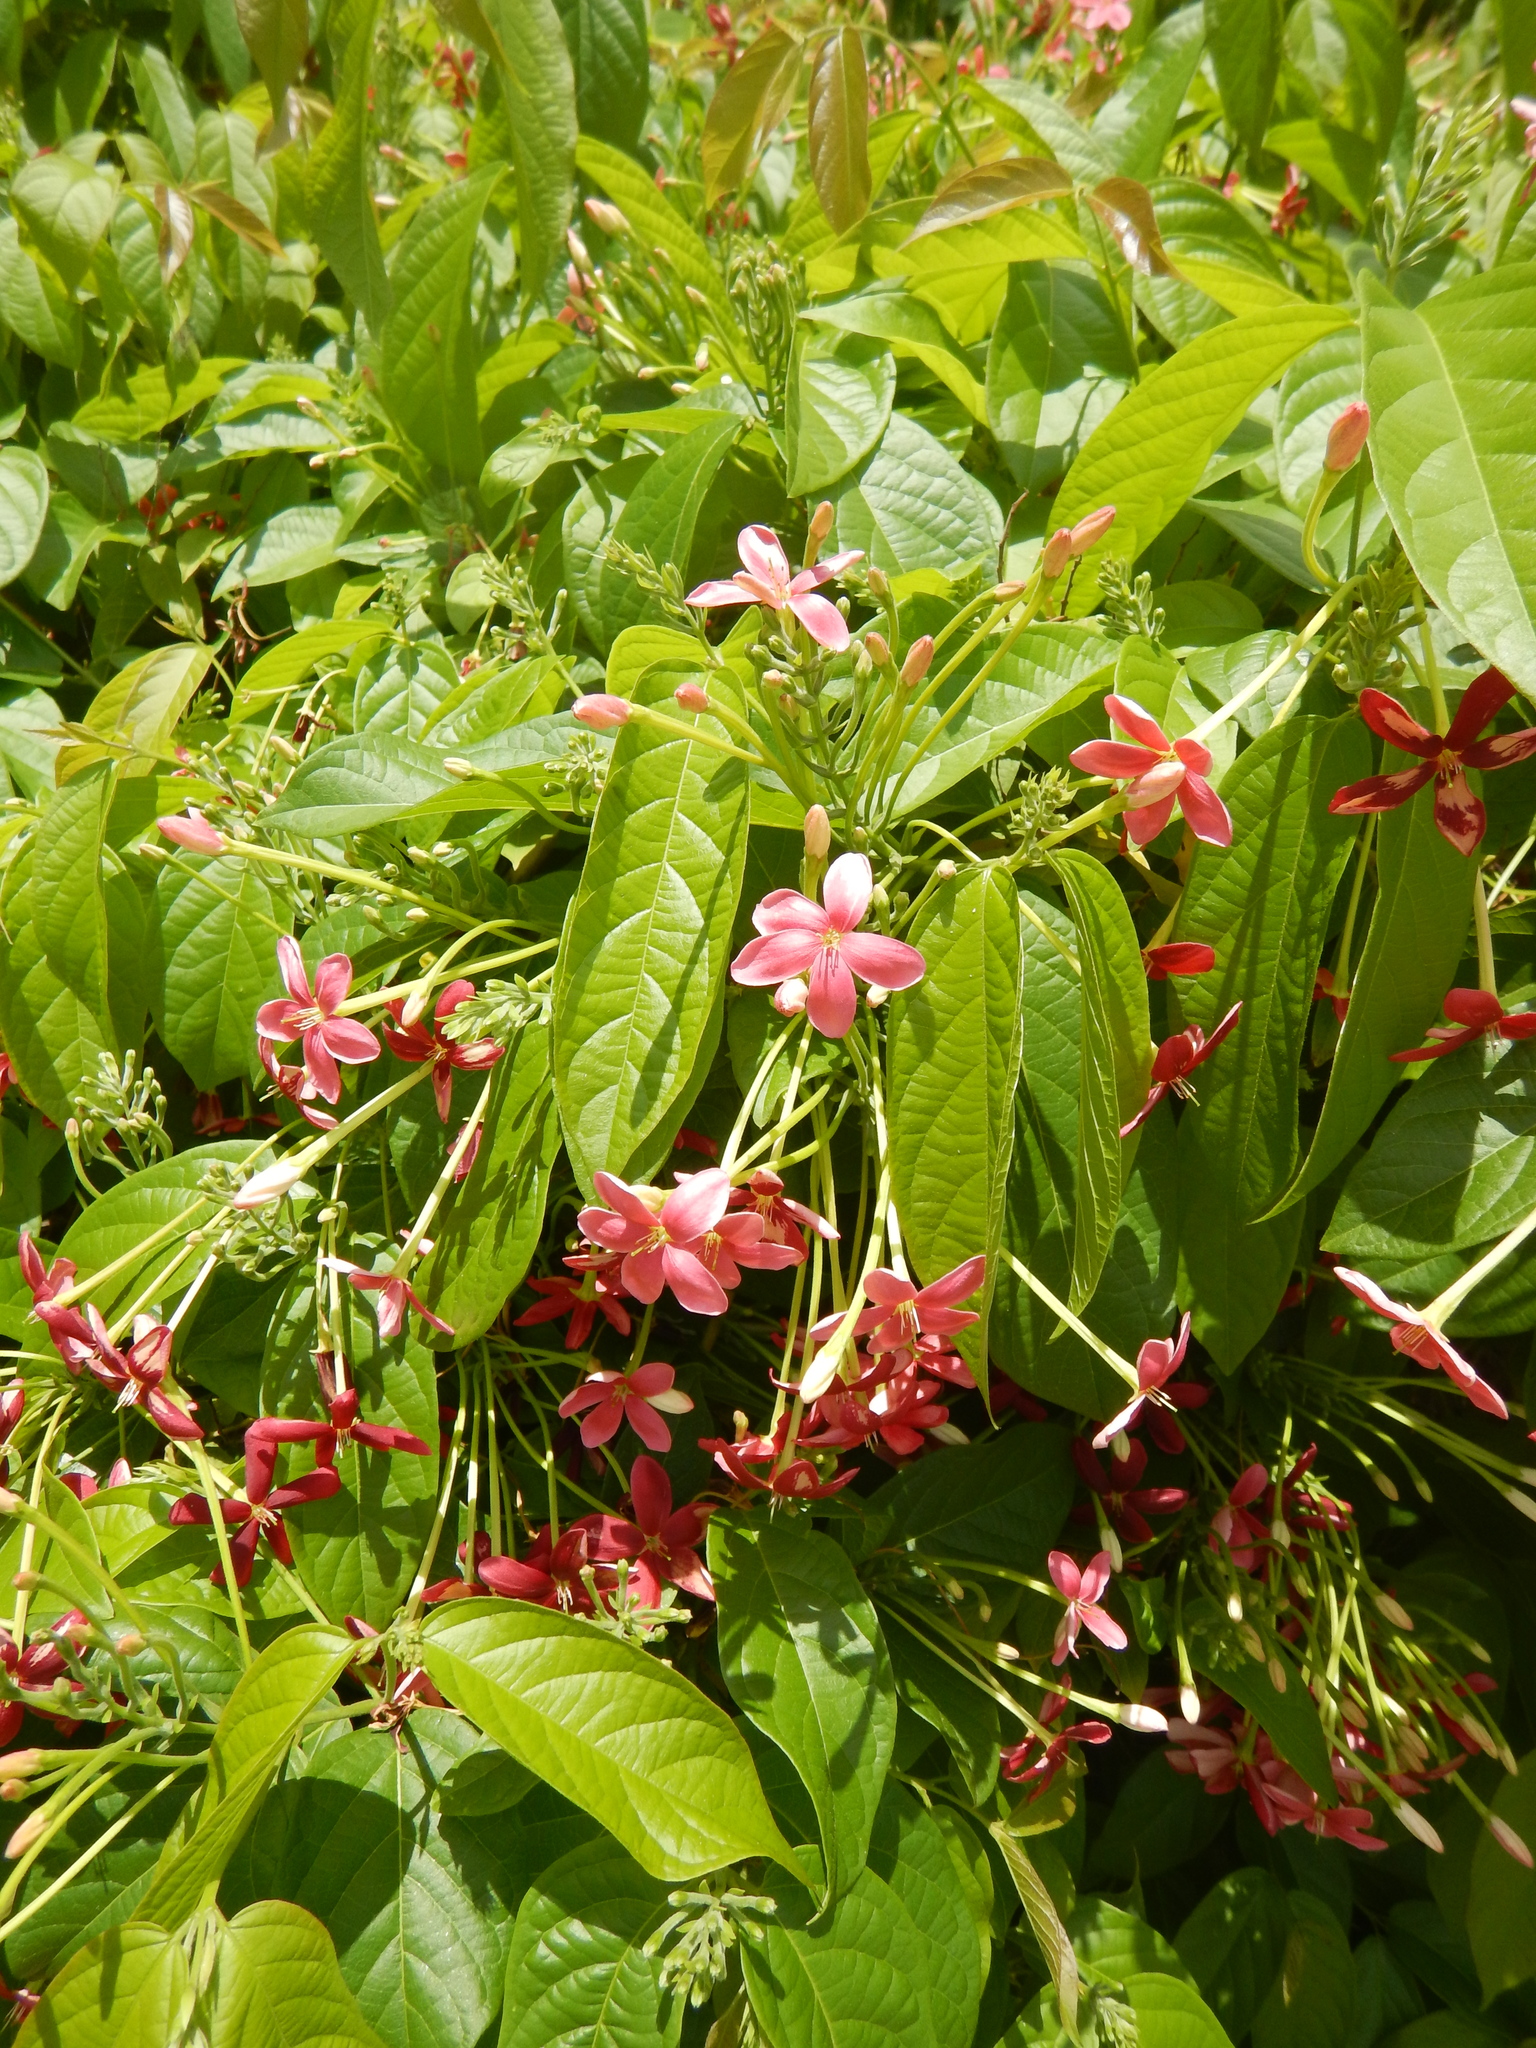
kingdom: Plantae
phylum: Tracheophyta
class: Magnoliopsida
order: Myrtales
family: Combretaceae
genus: Combretum
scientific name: Combretum indicum
